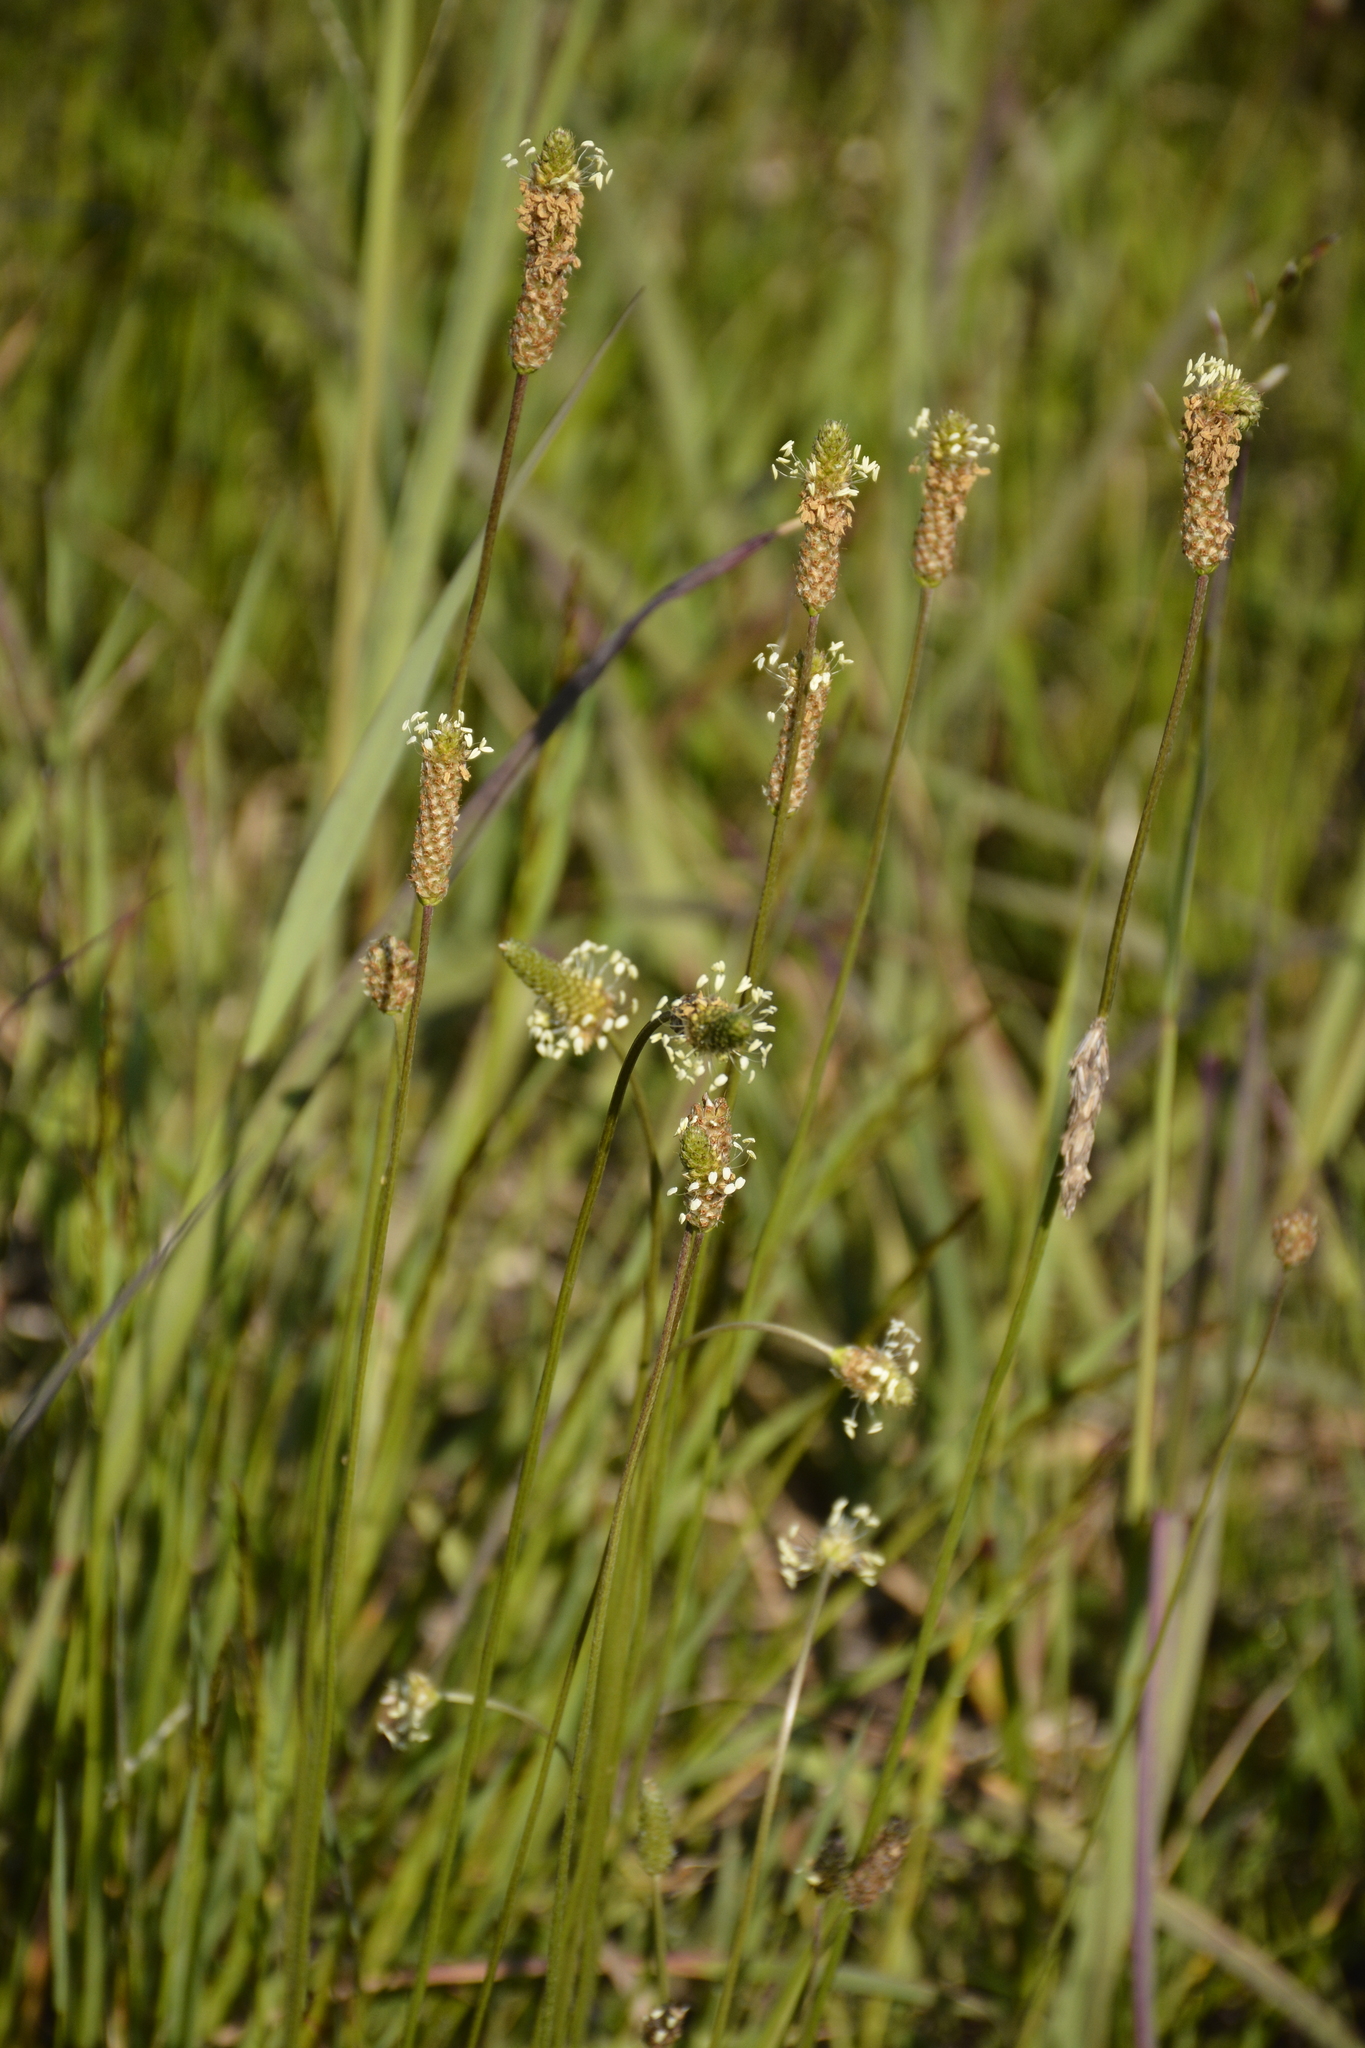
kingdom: Plantae
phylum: Tracheophyta
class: Magnoliopsida
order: Lamiales
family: Plantaginaceae
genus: Plantago
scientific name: Plantago lanceolata
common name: Ribwort plantain
